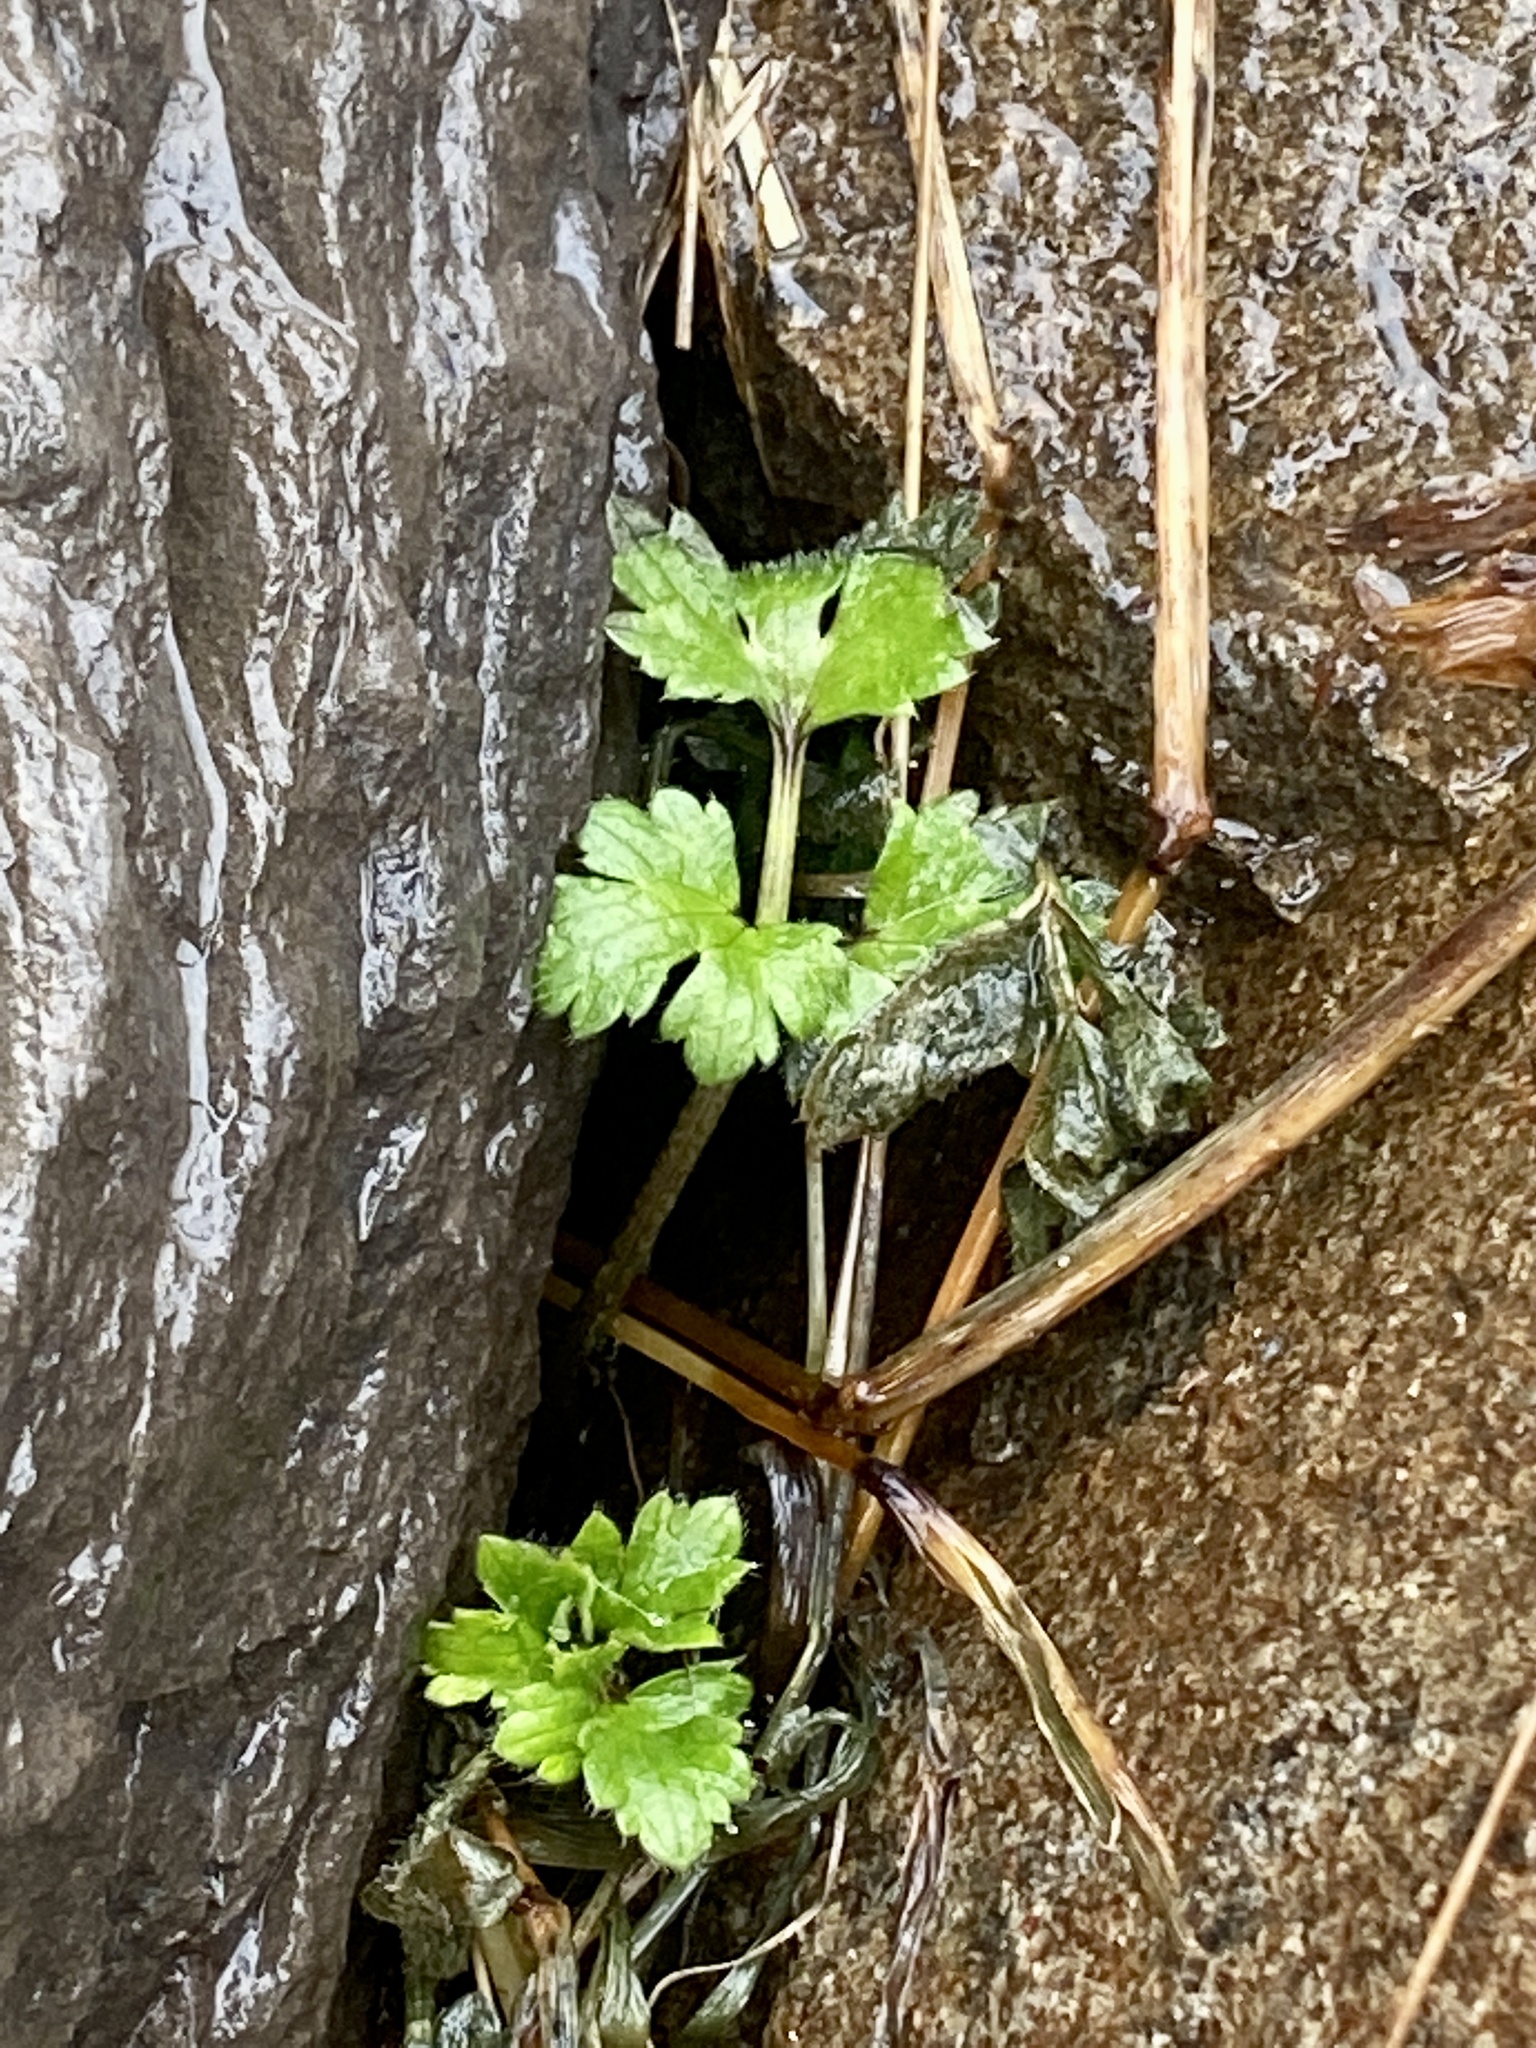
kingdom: Plantae
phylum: Tracheophyta
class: Magnoliopsida
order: Ranunculales
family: Ranunculaceae
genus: Ranunculus
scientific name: Ranunculus repens
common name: Creeping buttercup
